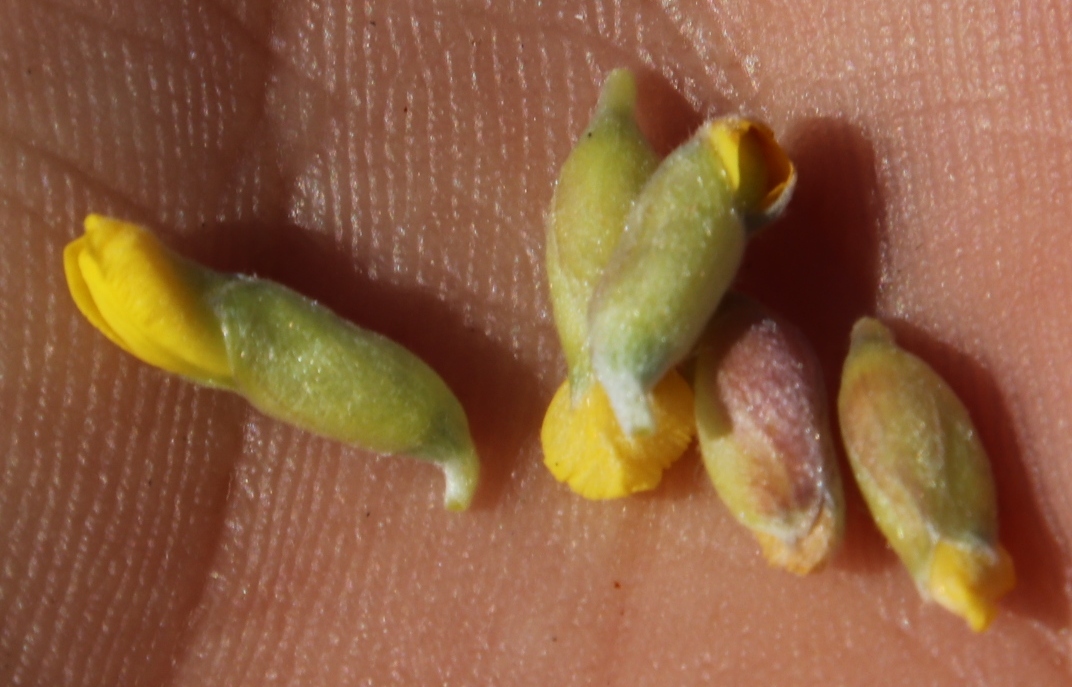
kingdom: Plantae
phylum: Tracheophyta
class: Magnoliopsida
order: Fabales
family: Fabaceae
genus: Pearsonia
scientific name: Pearsonia sessilifolia
